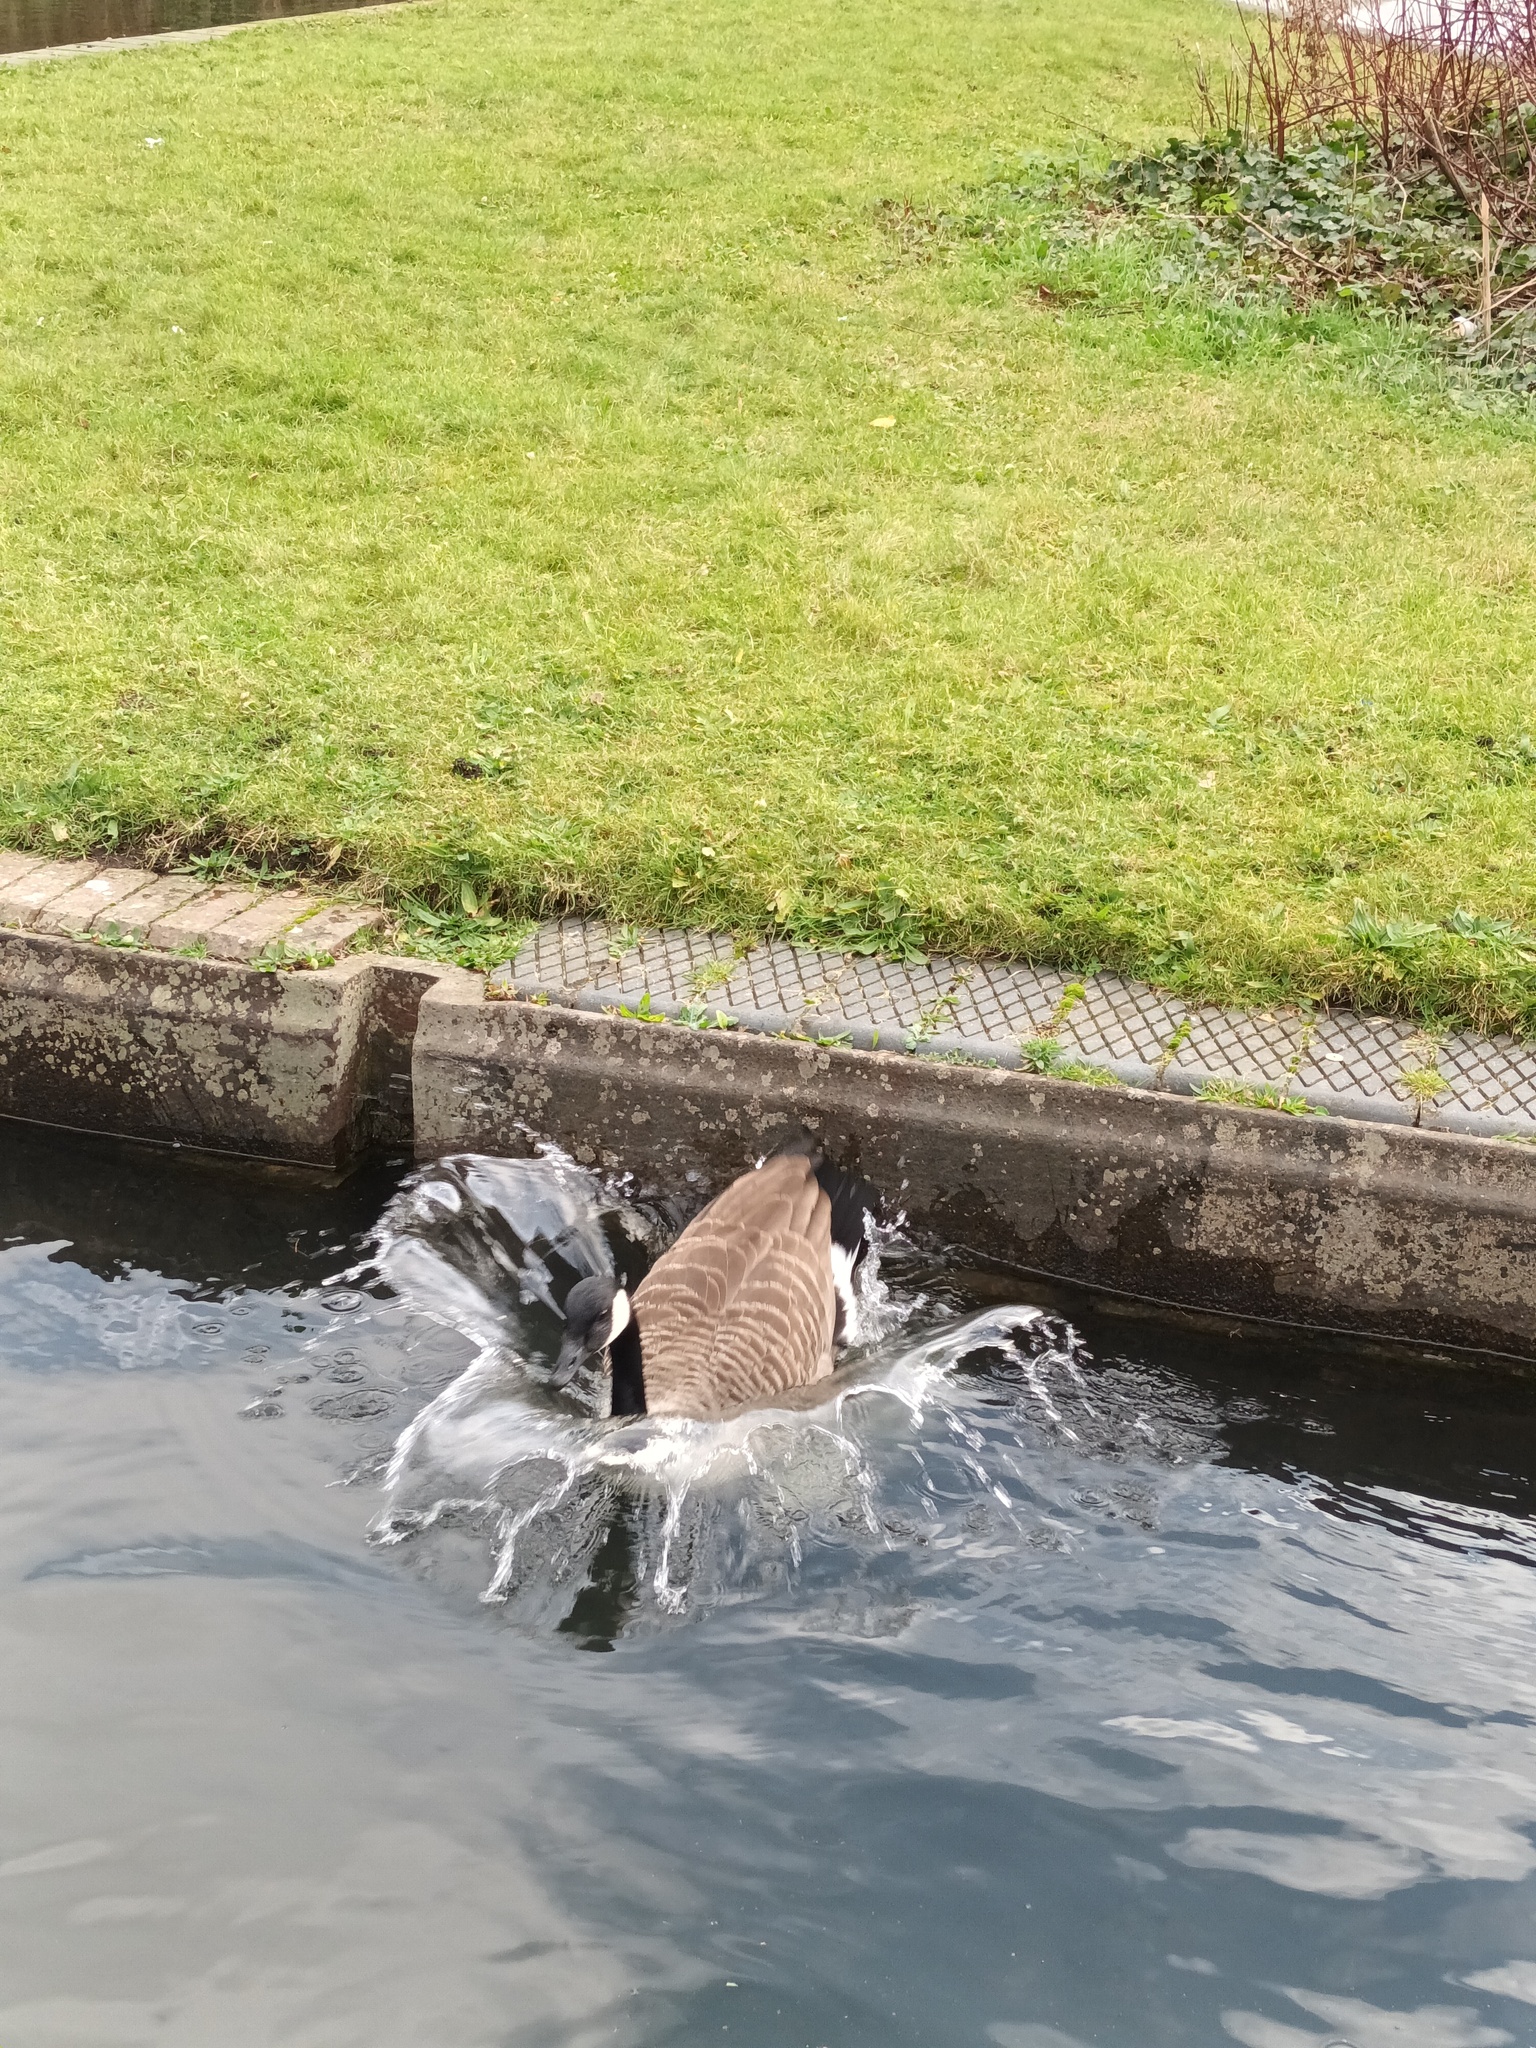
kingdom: Animalia
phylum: Chordata
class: Aves
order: Anseriformes
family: Anatidae
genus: Branta
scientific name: Branta canadensis
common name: Canada goose
